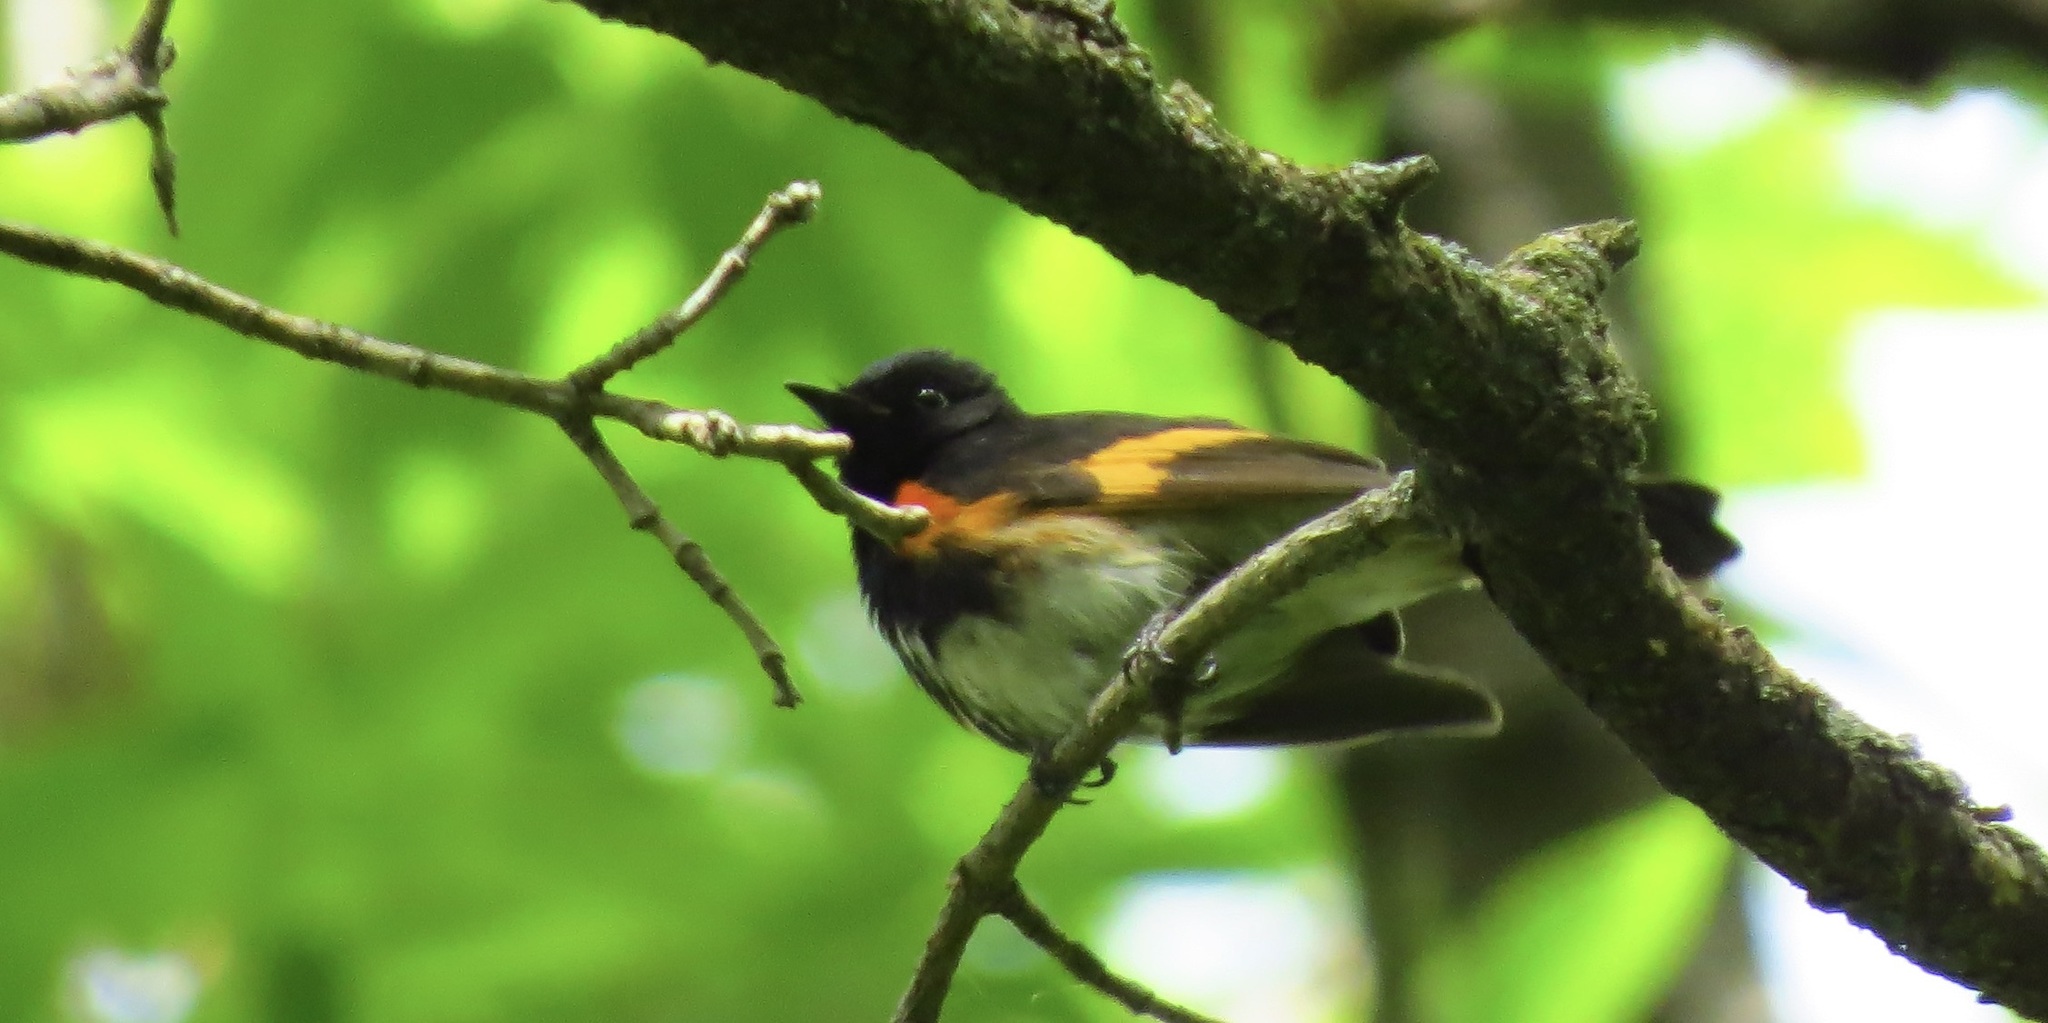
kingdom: Animalia
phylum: Chordata
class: Aves
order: Passeriformes
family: Parulidae
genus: Setophaga
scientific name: Setophaga ruticilla
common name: American redstart
